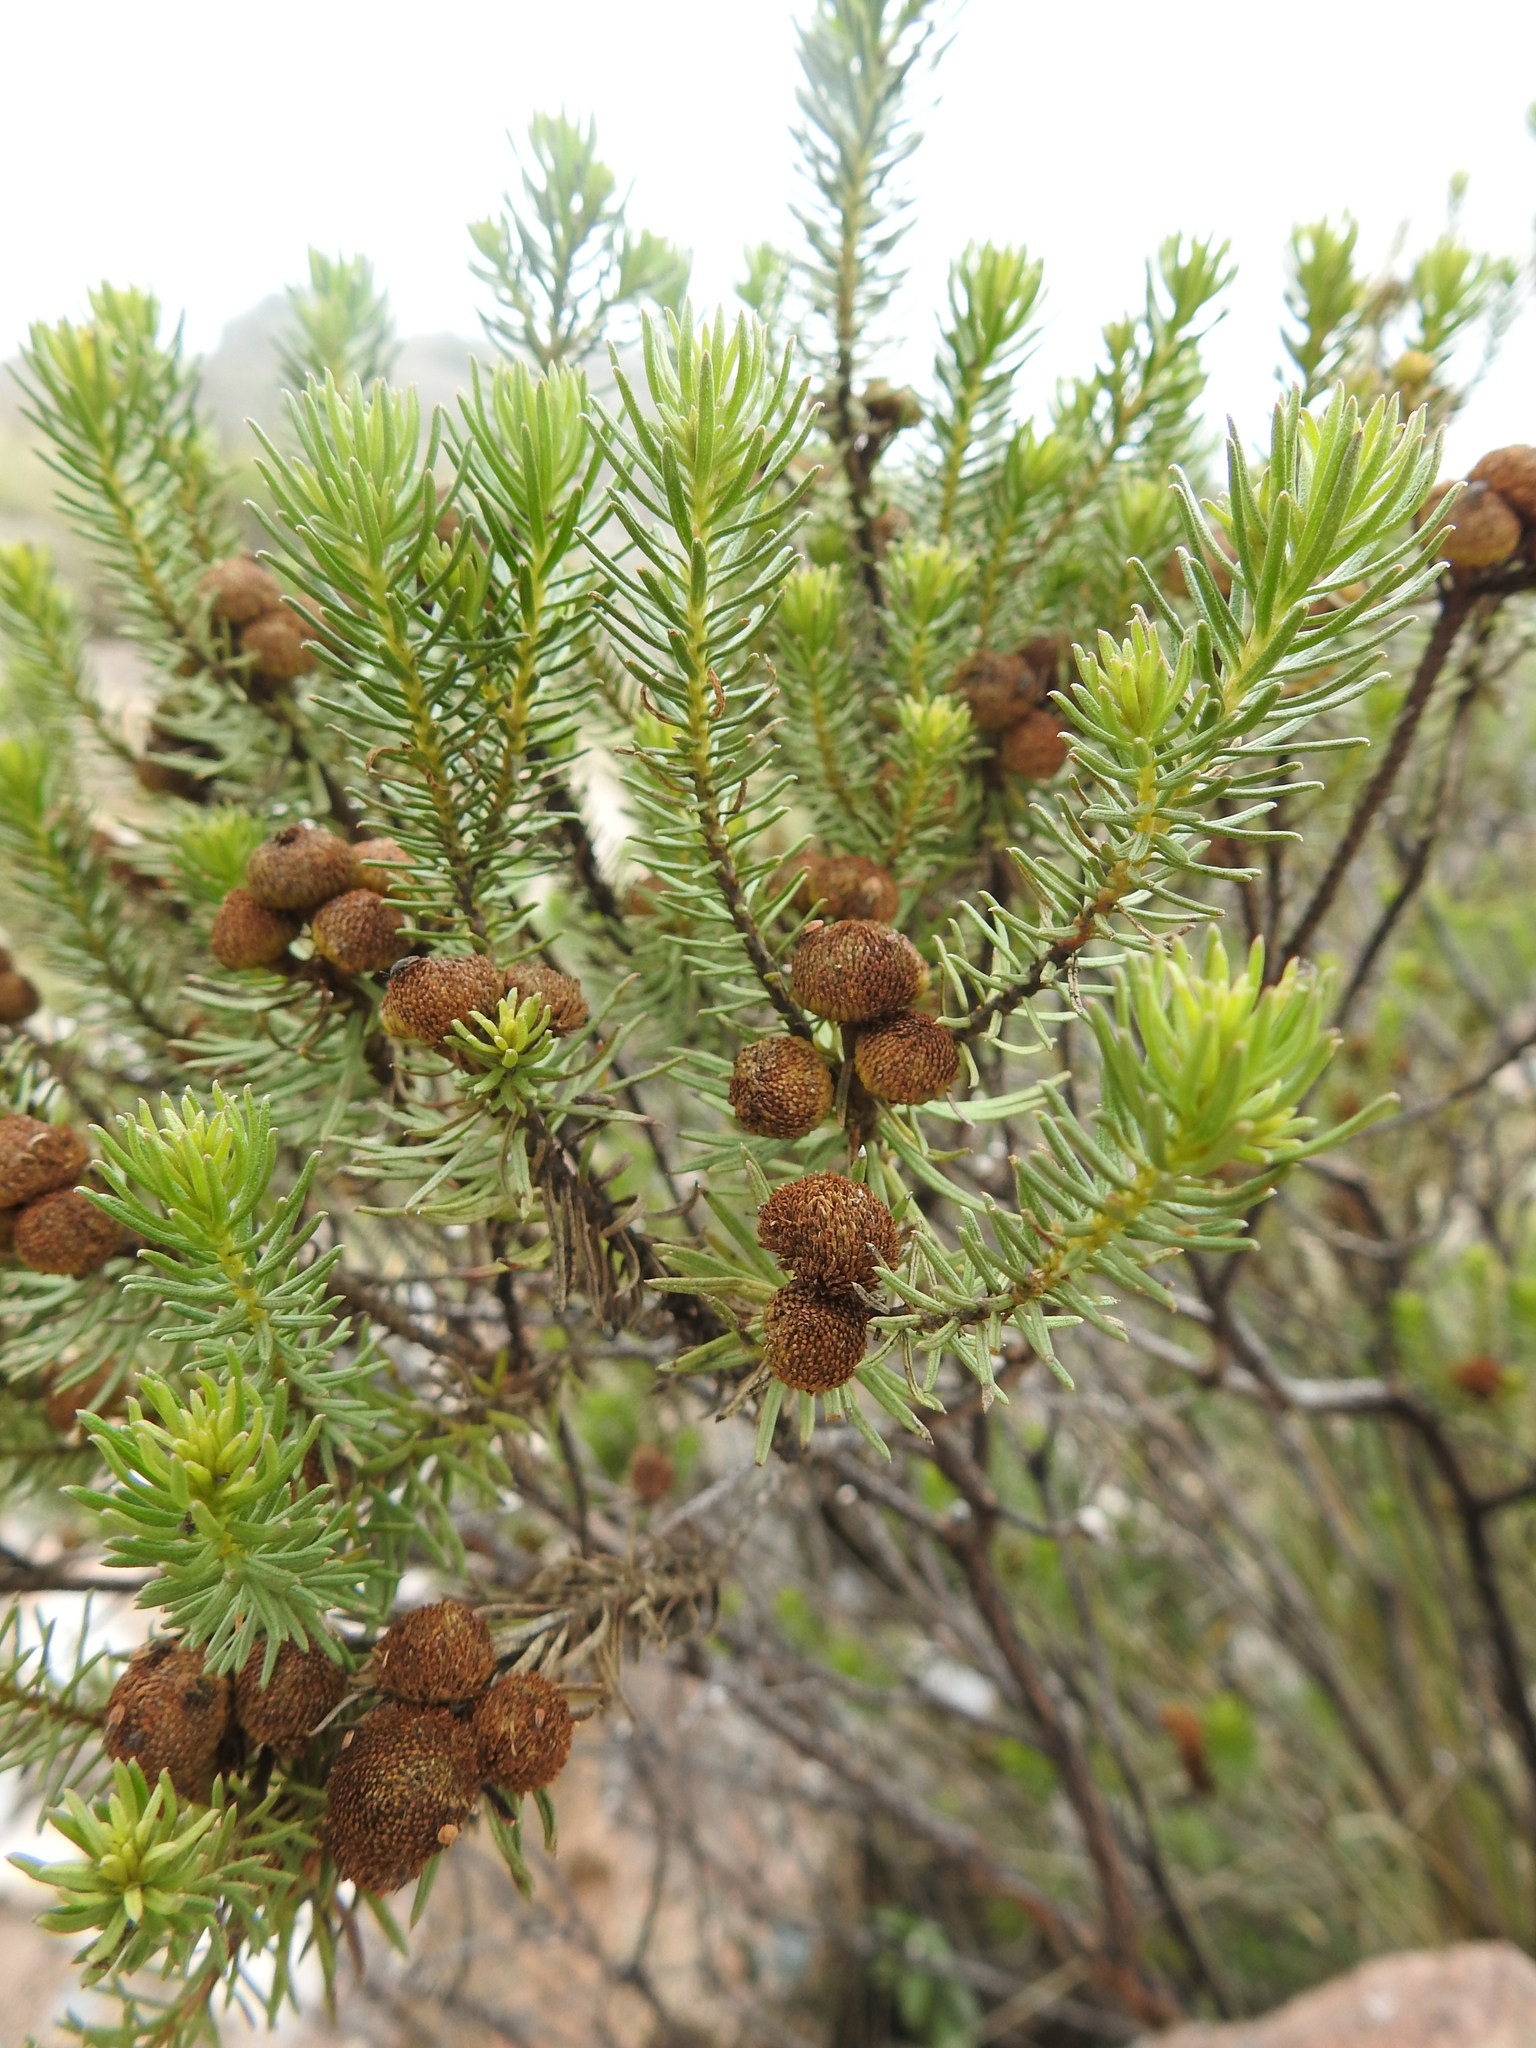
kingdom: Plantae
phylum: Tracheophyta
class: Magnoliopsida
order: Asterales
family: Asteraceae
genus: Baccharis
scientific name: Baccharis aliena
